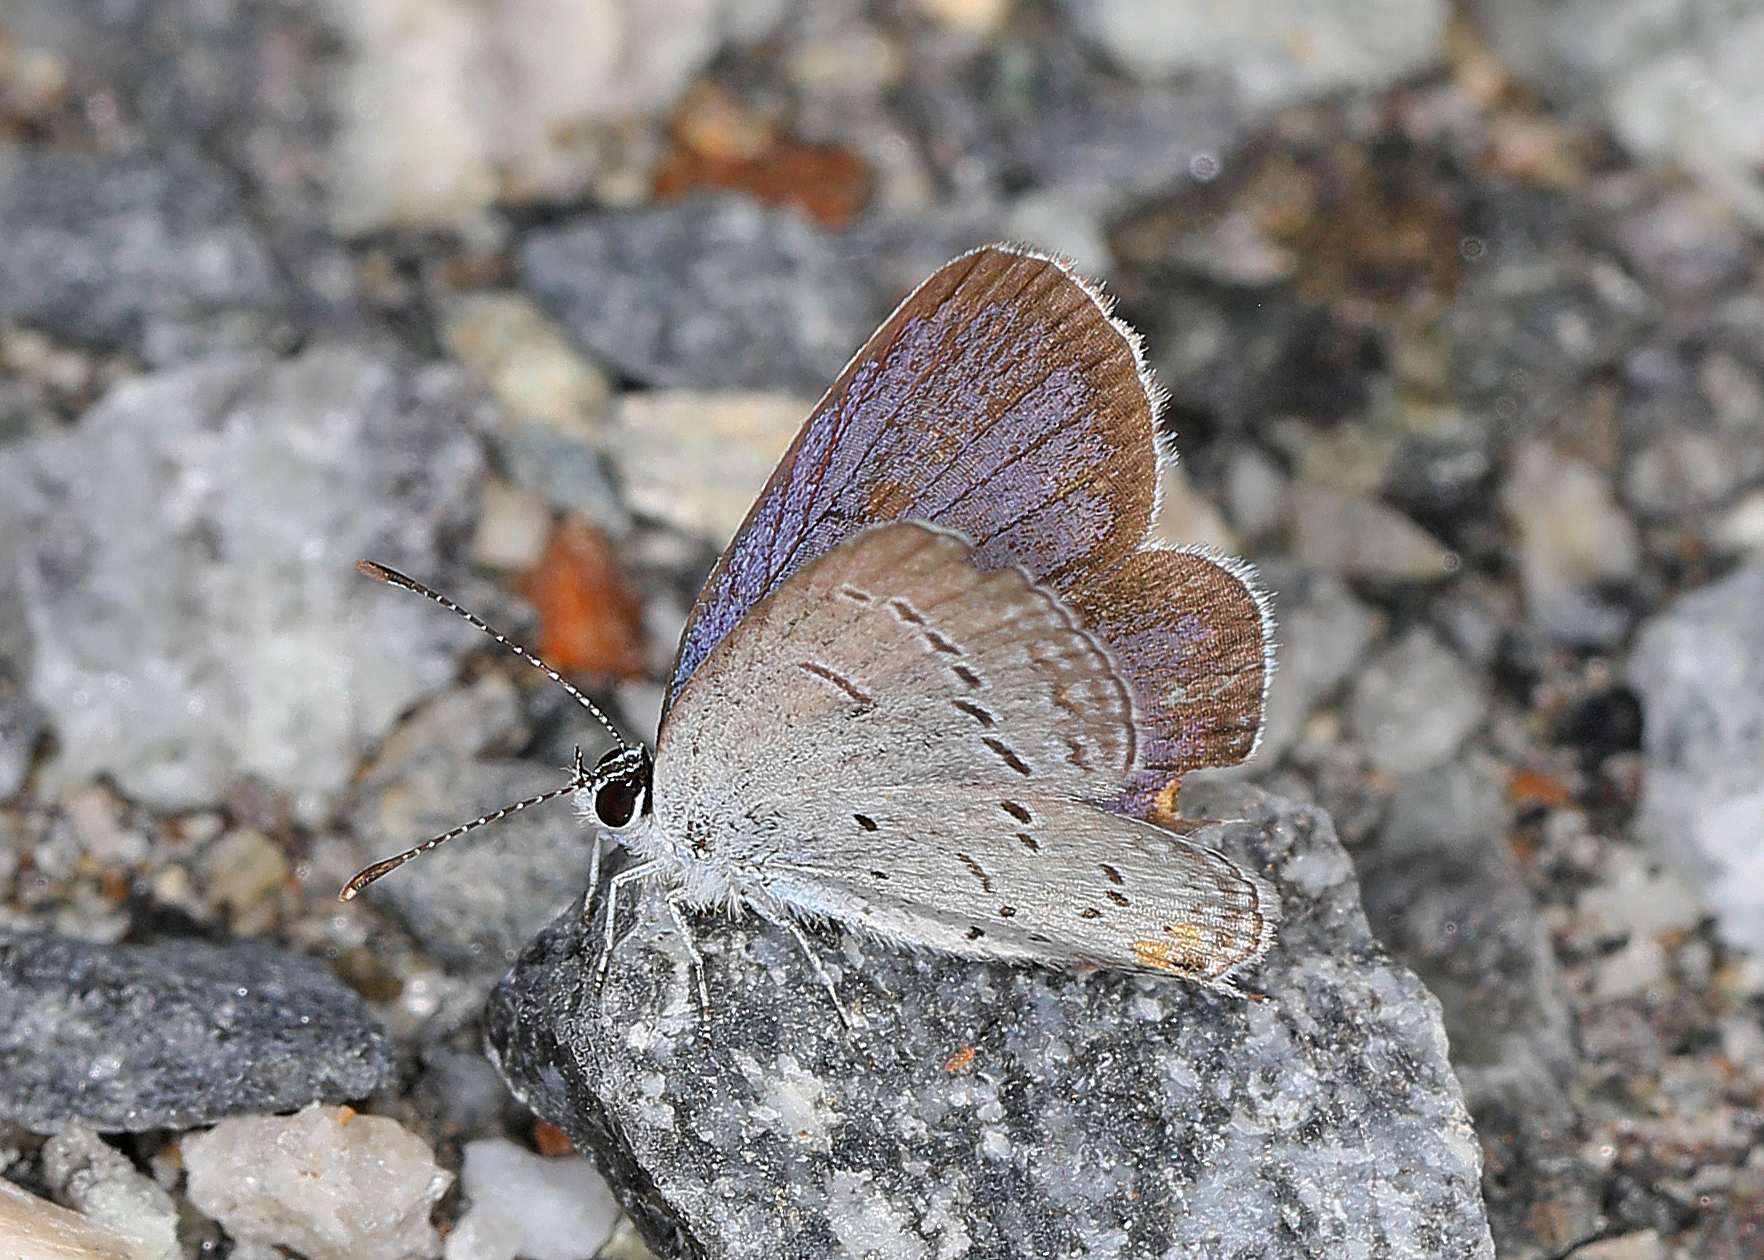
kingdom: Animalia
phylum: Arthropoda
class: Insecta
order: Lepidoptera
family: Lycaenidae
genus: Elkalyce
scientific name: Elkalyce comyntas
